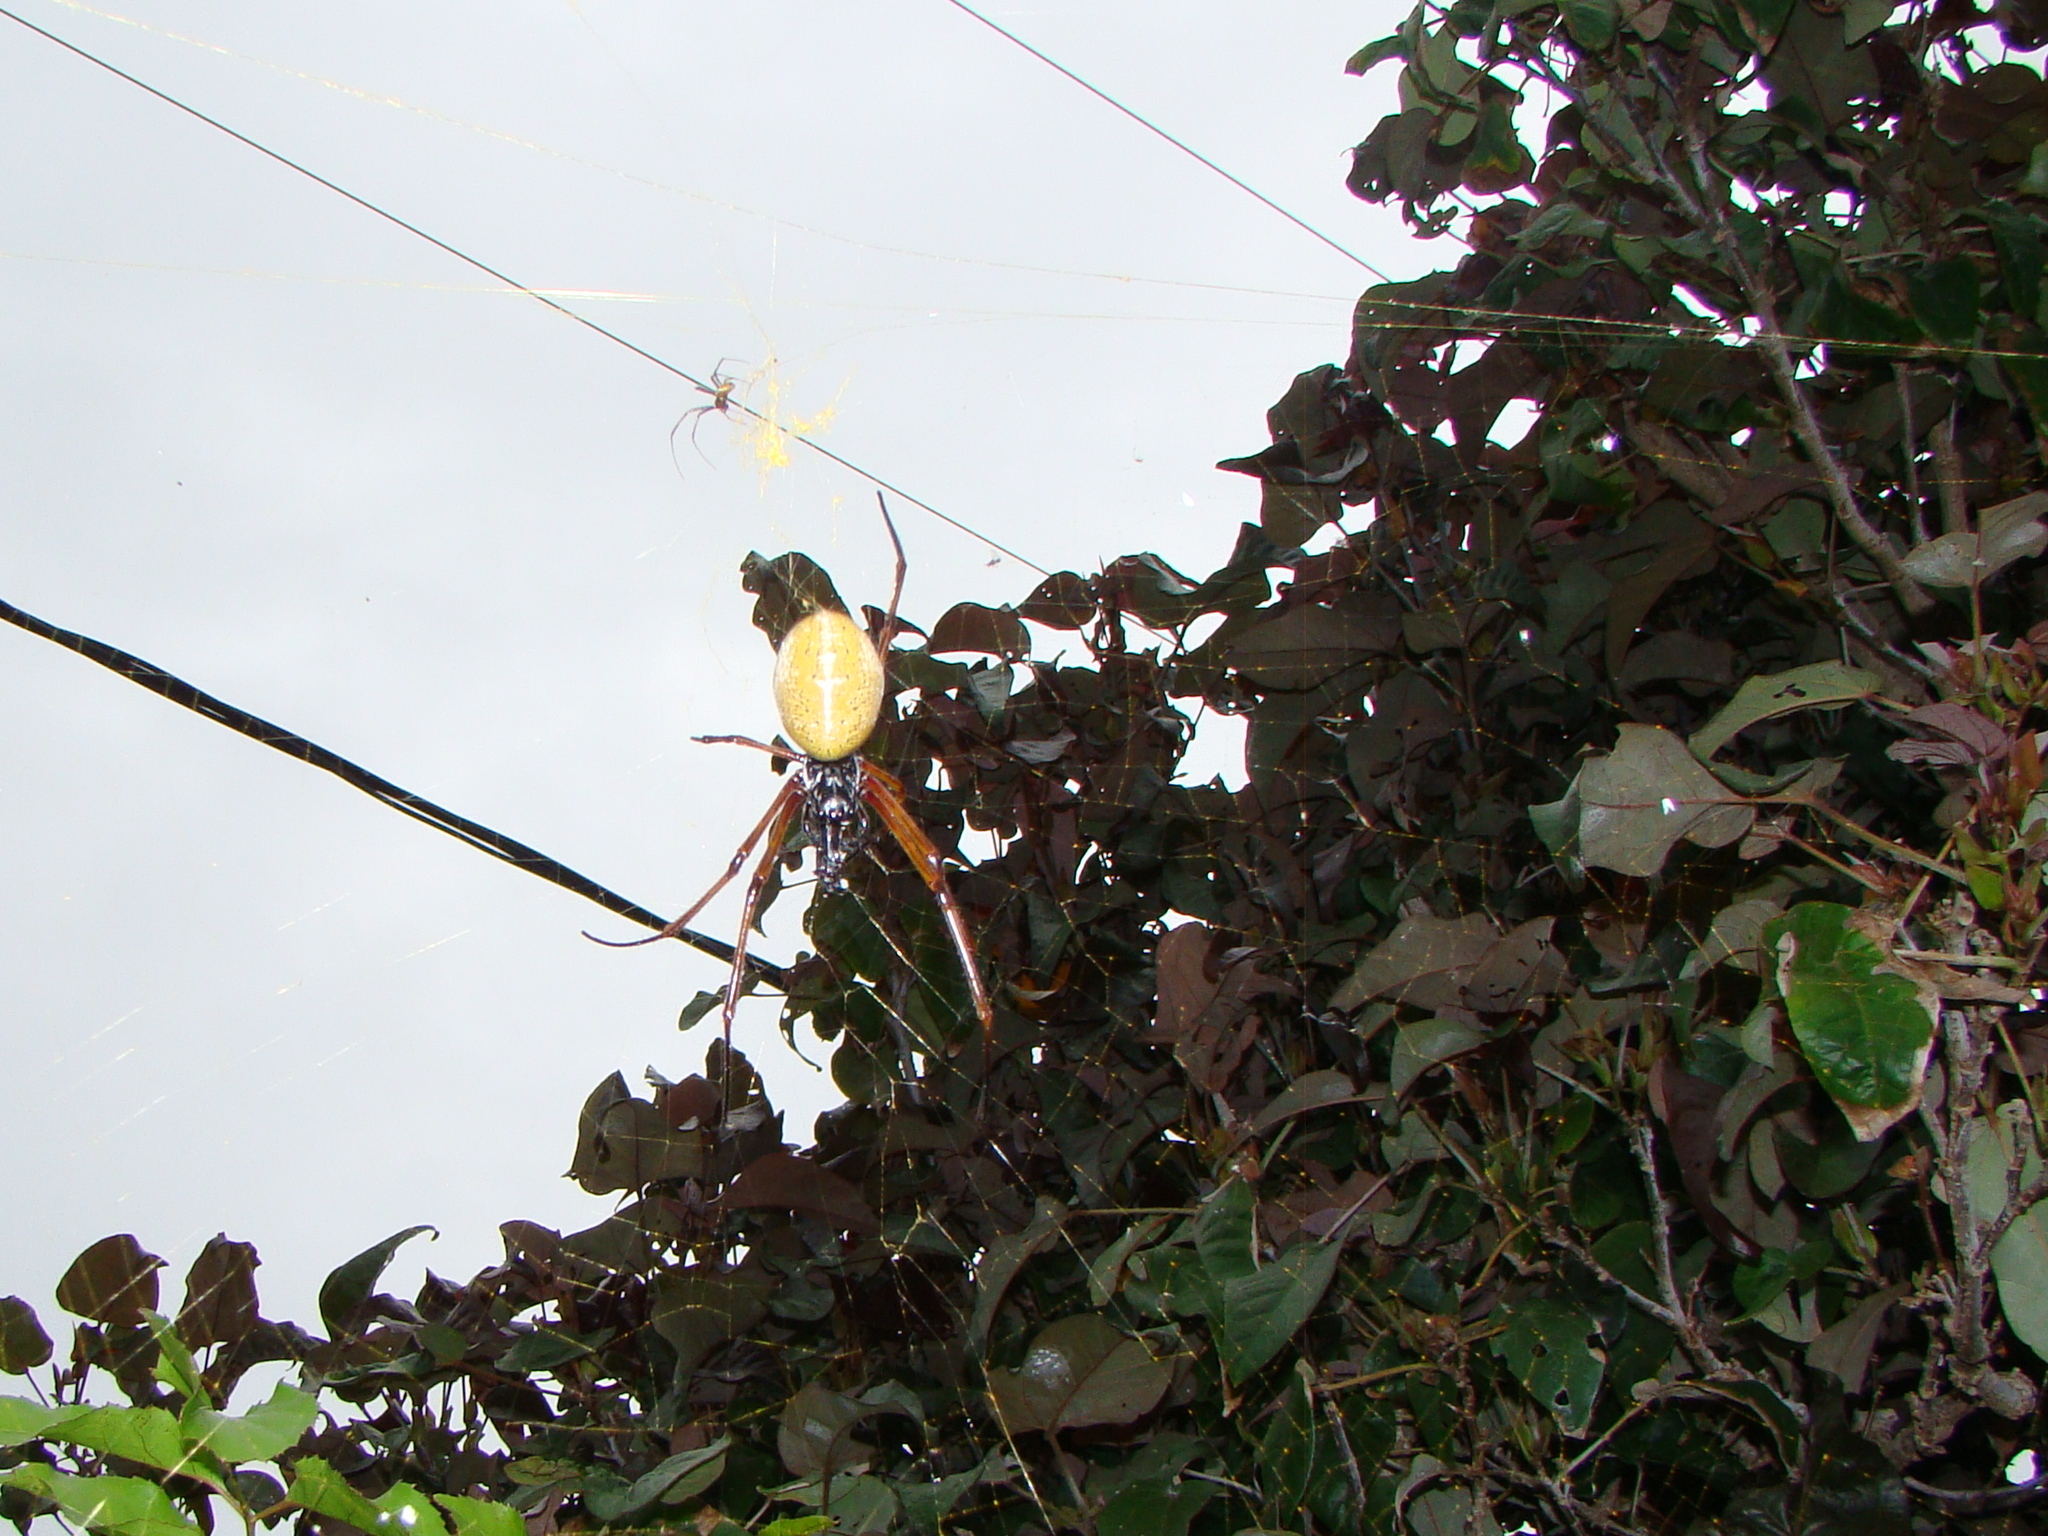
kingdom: Animalia
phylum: Arthropoda
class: Arachnida
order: Araneae
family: Araneidae
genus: Trichonephila
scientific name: Trichonephila plumipes
